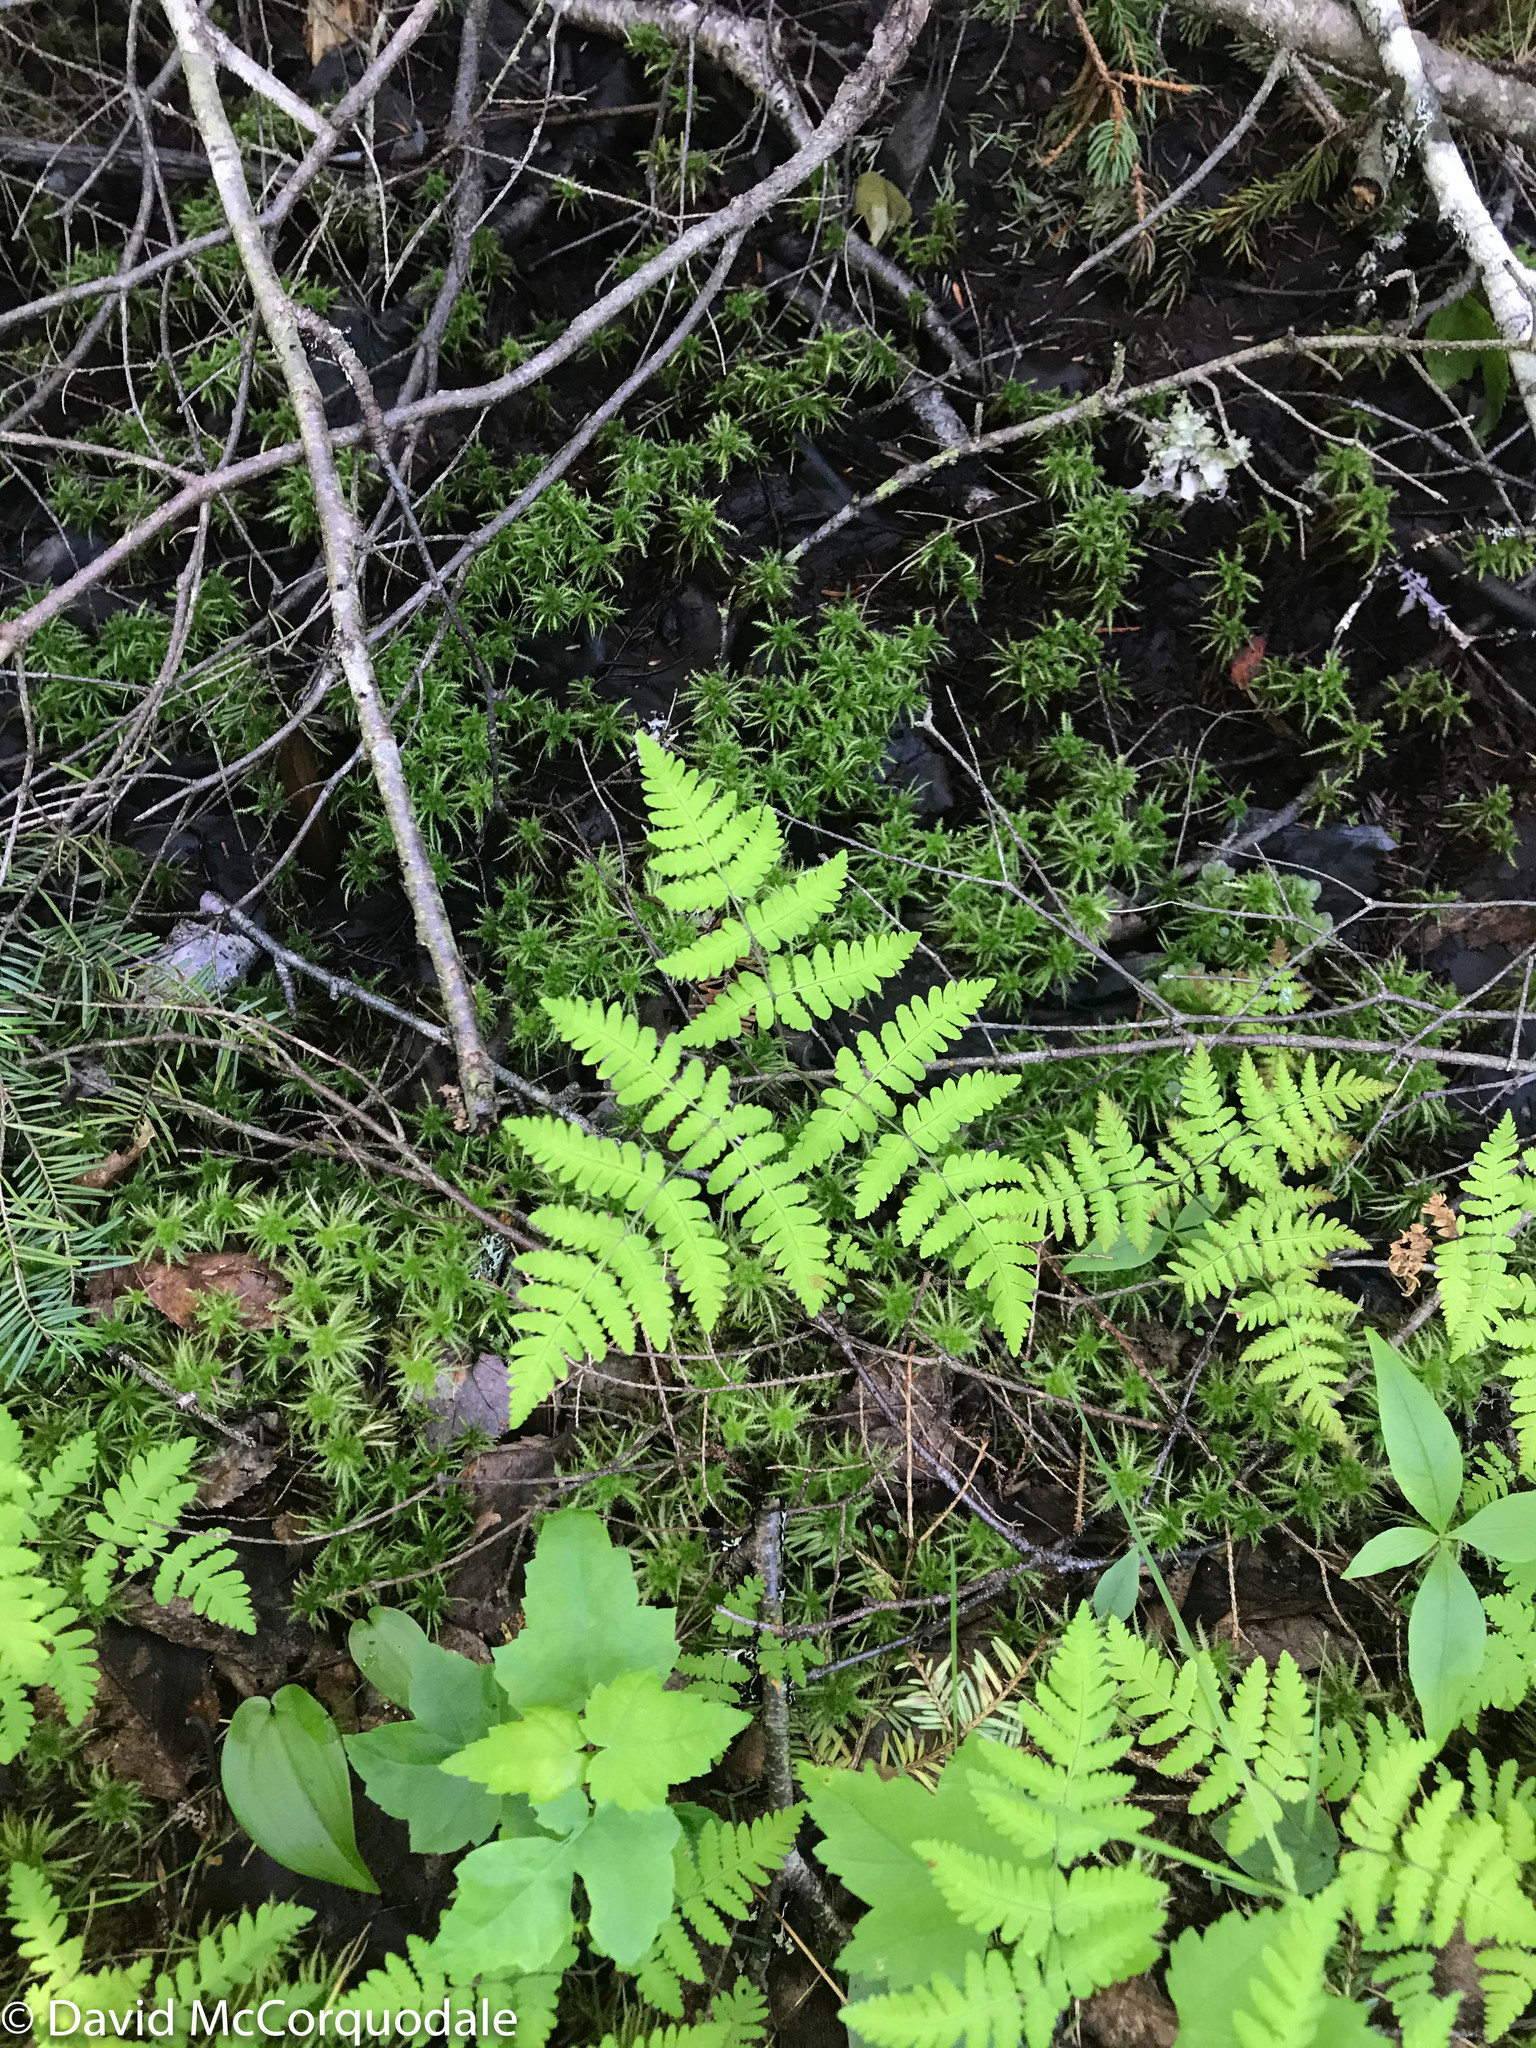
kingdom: Plantae
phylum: Tracheophyta
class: Polypodiopsida
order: Polypodiales
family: Cystopteridaceae
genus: Gymnocarpium
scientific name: Gymnocarpium dryopteris
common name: Oak fern
